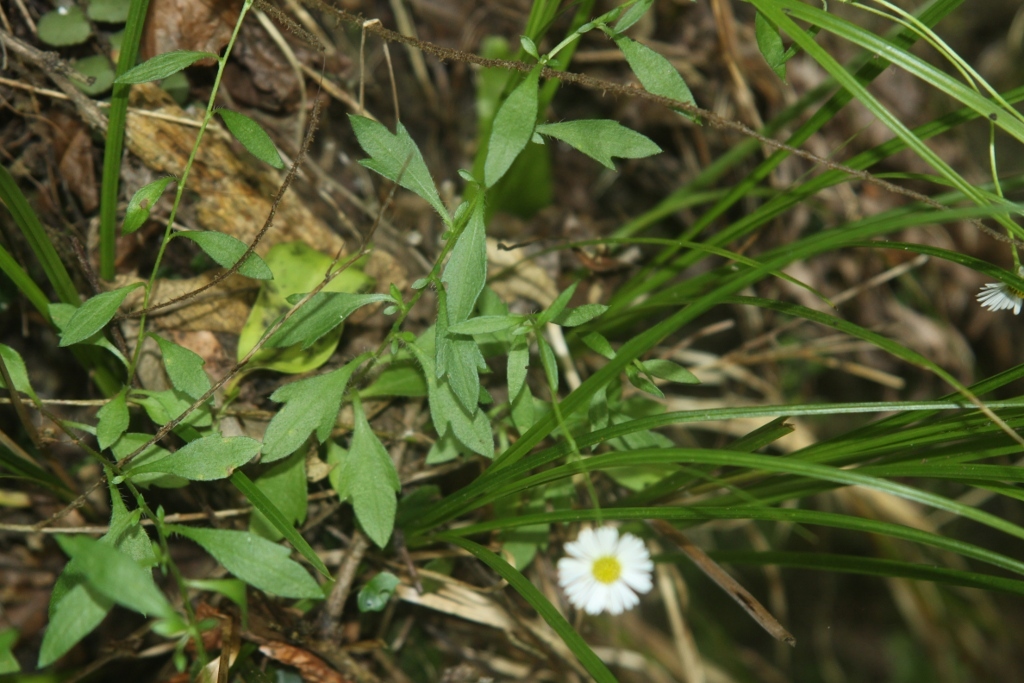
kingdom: Plantae
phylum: Tracheophyta
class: Magnoliopsida
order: Asterales
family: Asteraceae
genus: Erigeron
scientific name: Erigeron karvinskianus
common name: Mexican fleabane
